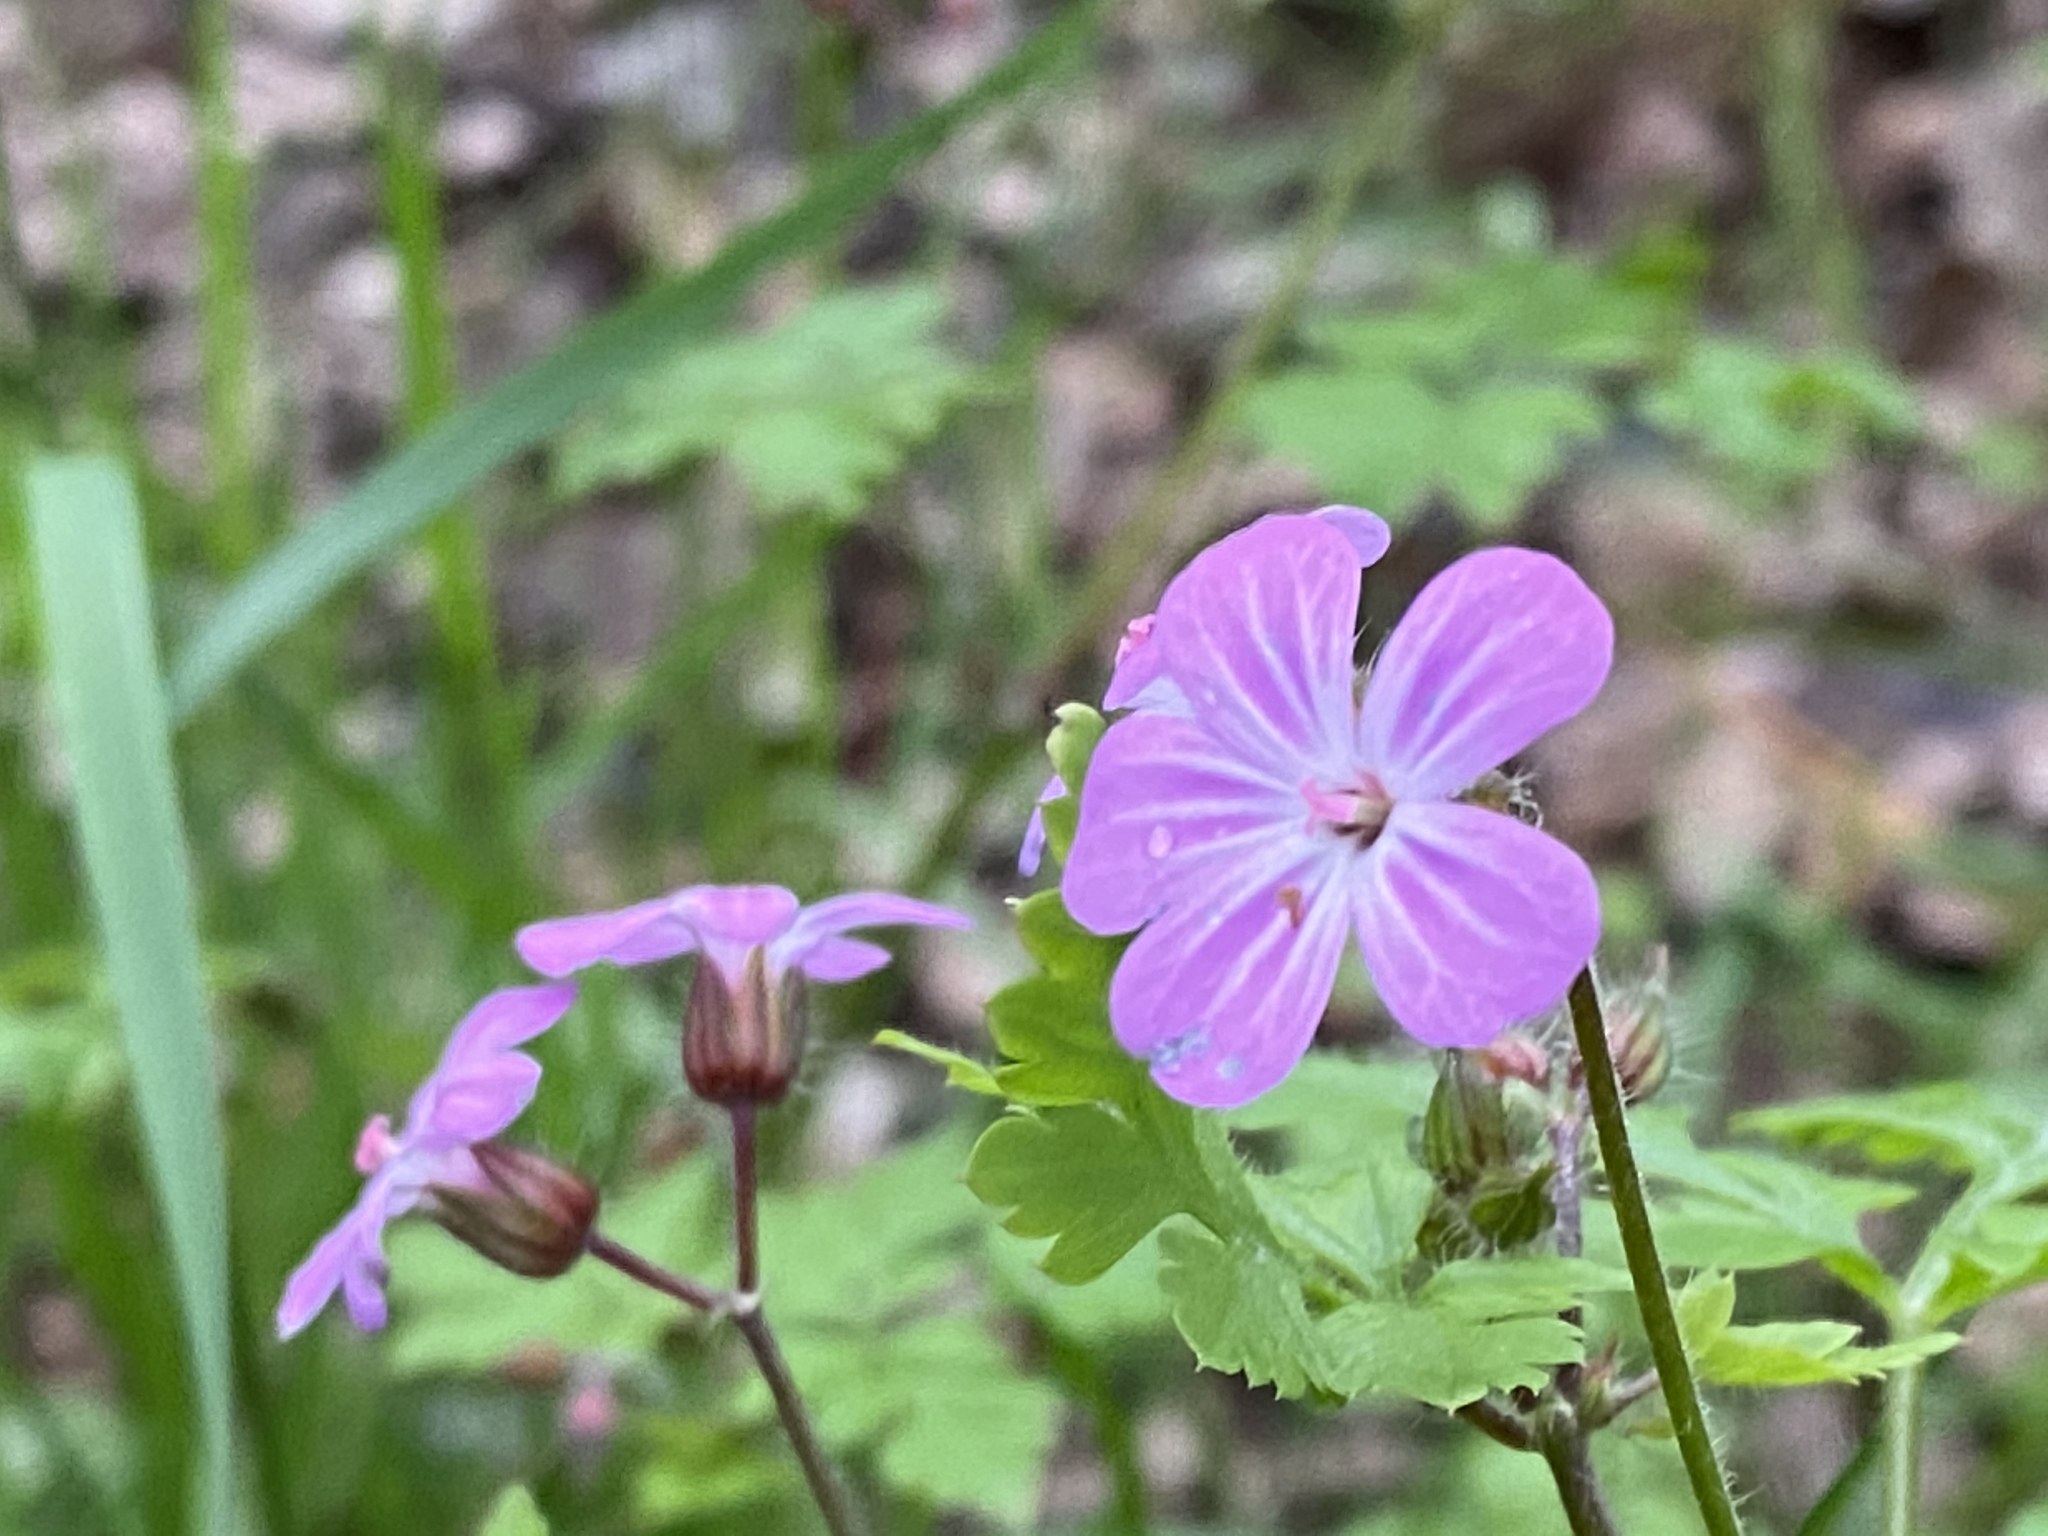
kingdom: Plantae
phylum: Tracheophyta
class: Magnoliopsida
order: Geraniales
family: Geraniaceae
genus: Geranium
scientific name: Geranium robertianum
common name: Herb-robert
